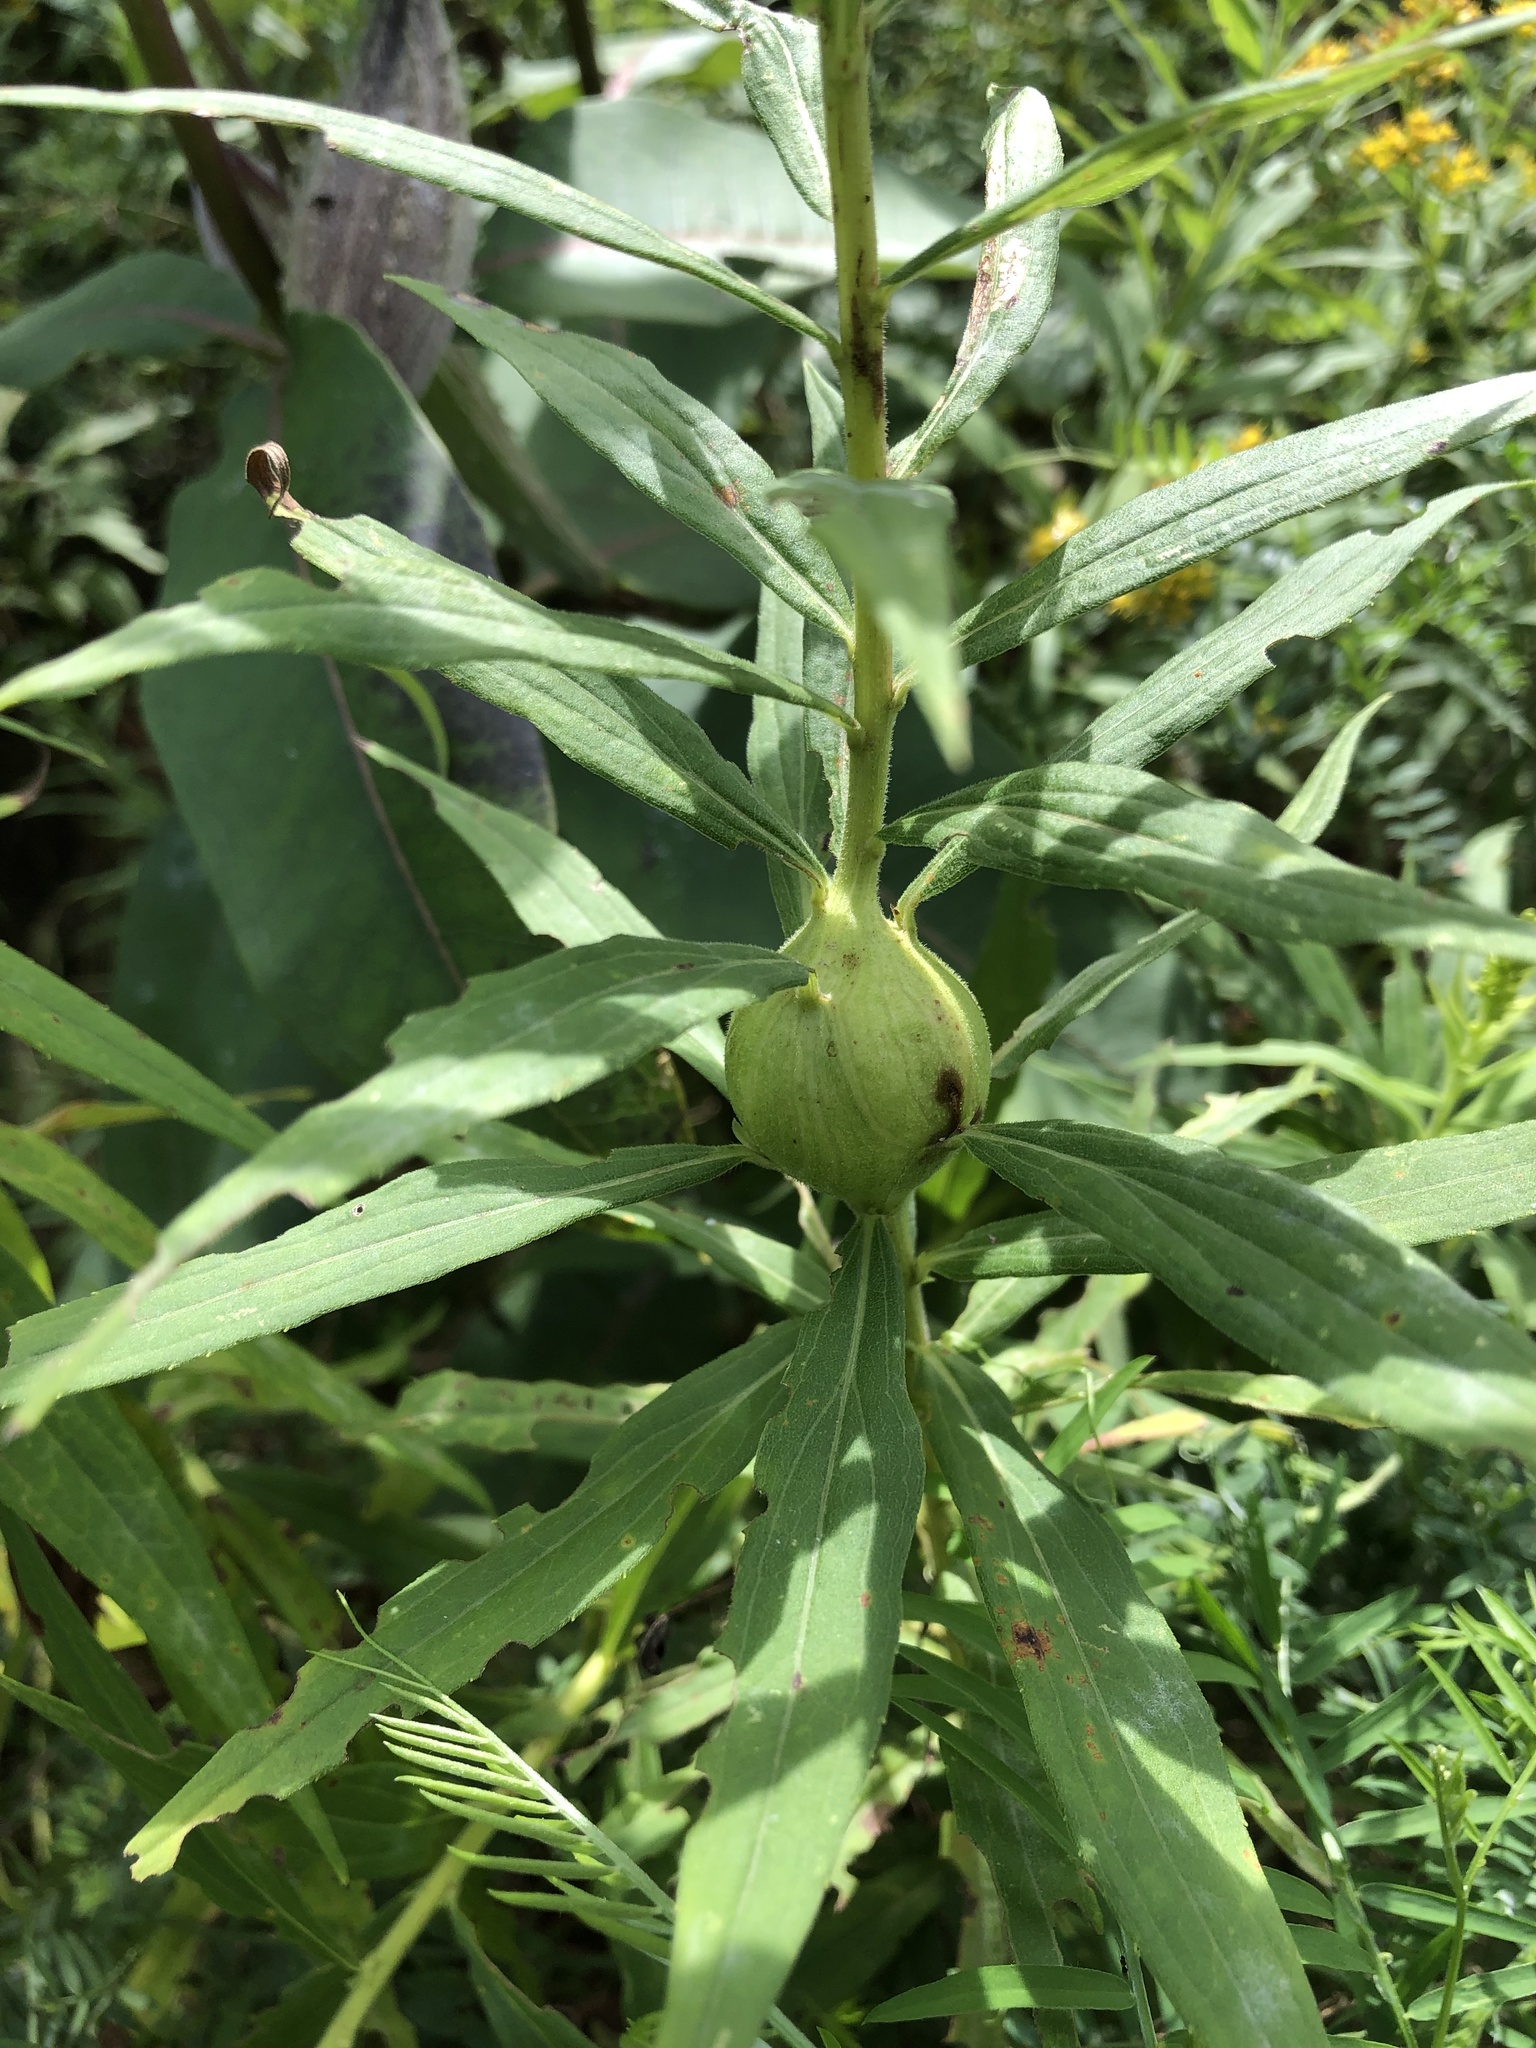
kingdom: Animalia
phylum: Arthropoda
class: Insecta
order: Diptera
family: Tephritidae
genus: Eurosta
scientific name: Eurosta solidaginis
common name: Goldenrod gall fly
